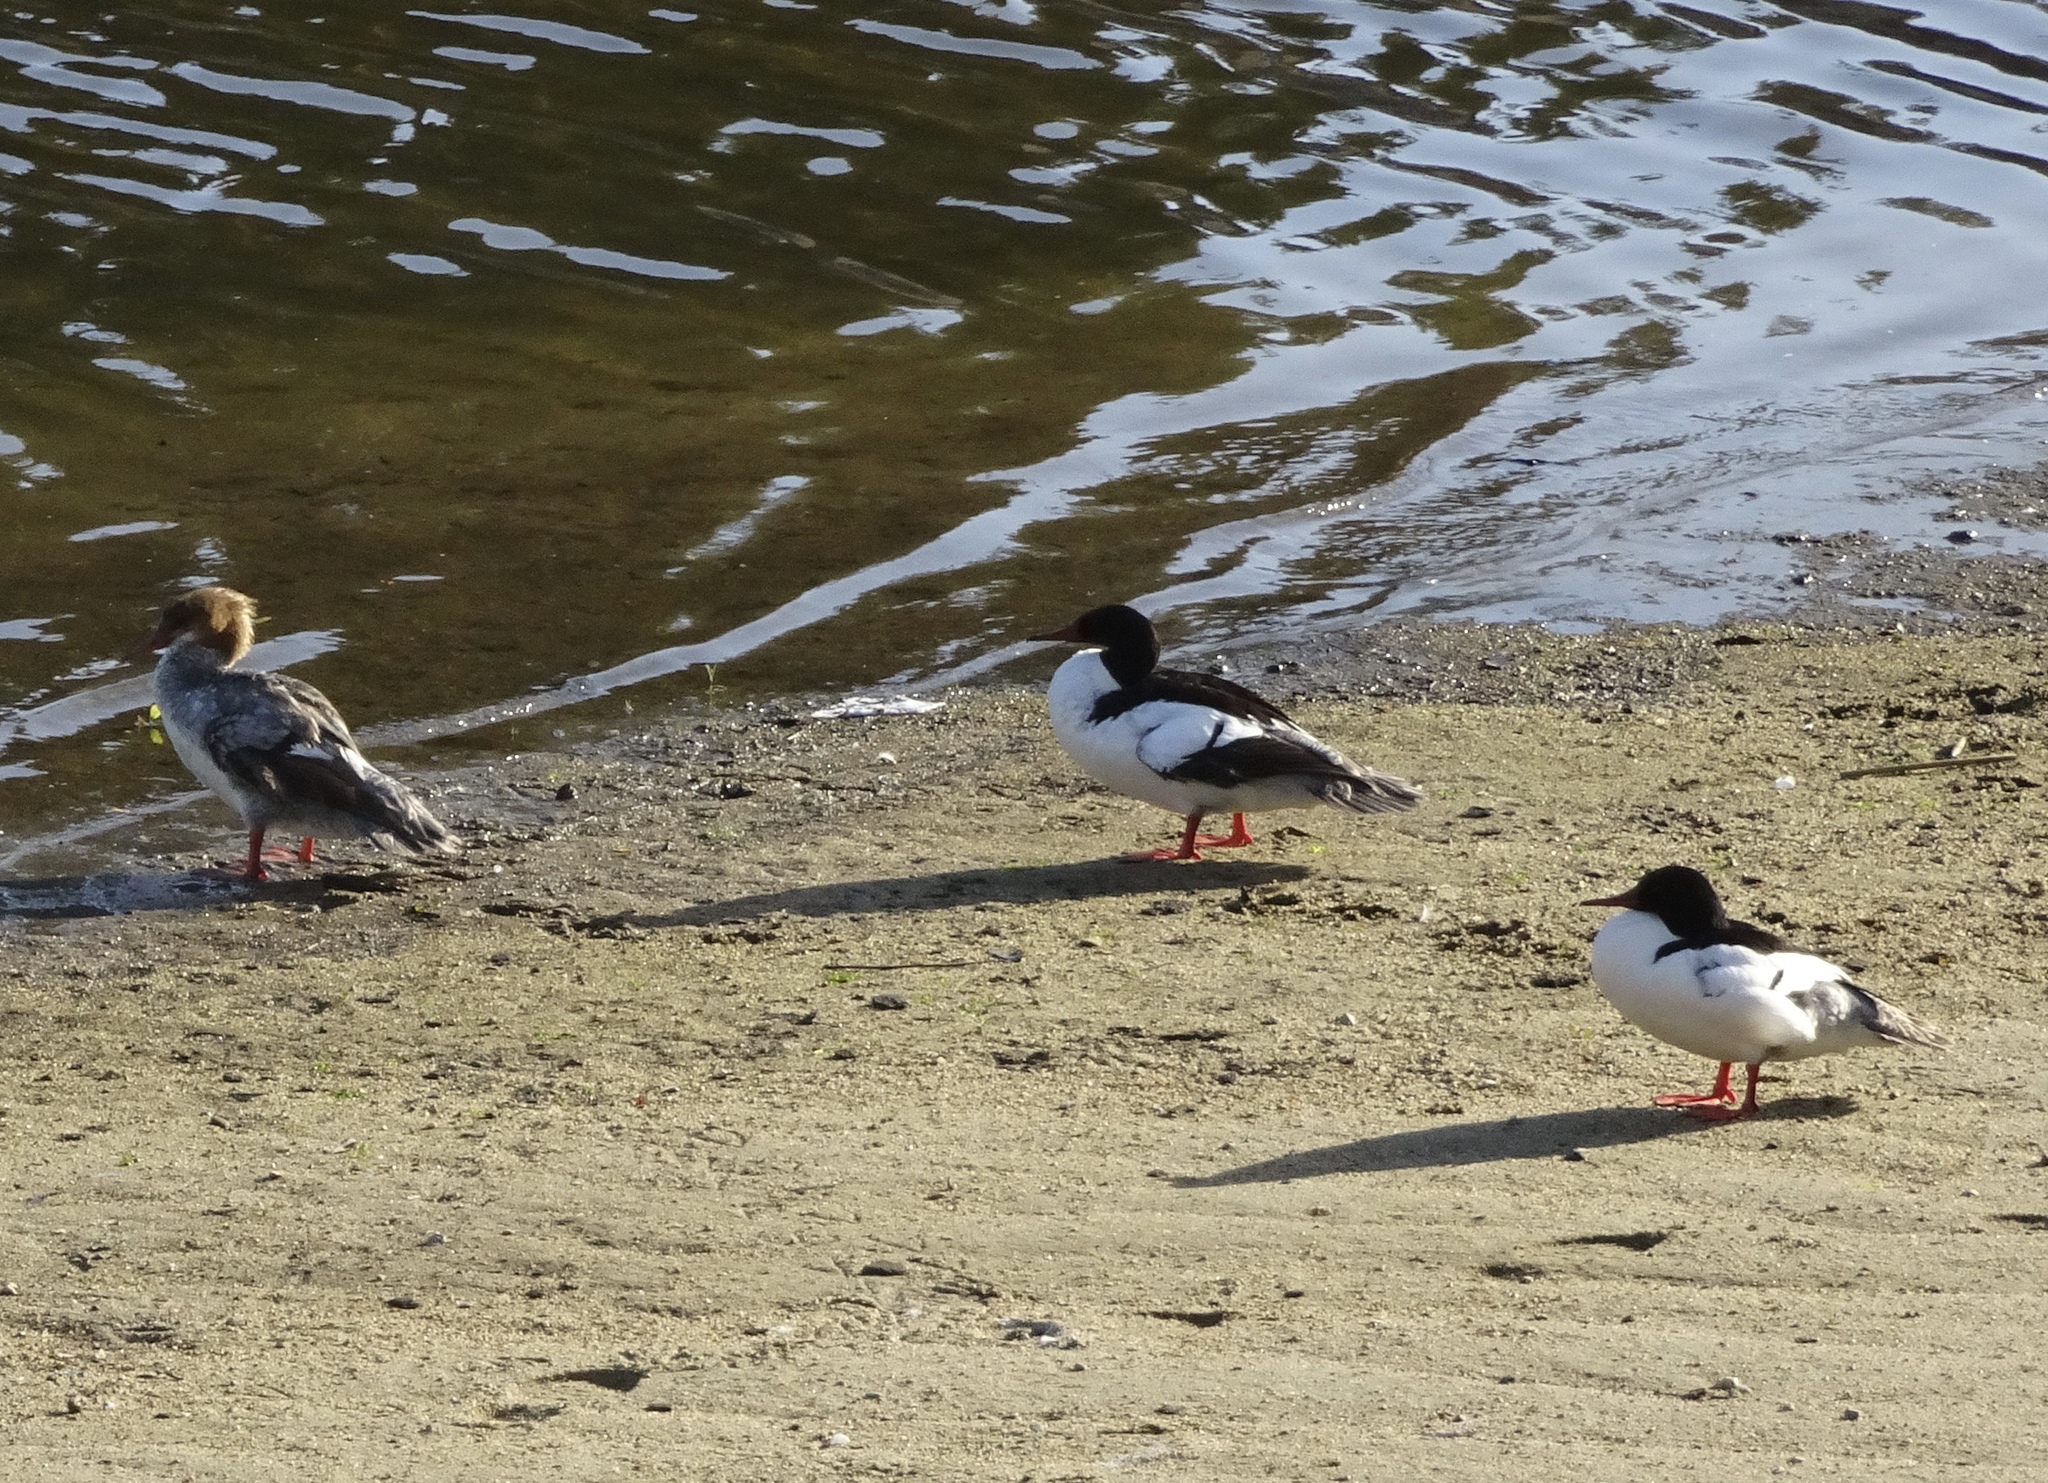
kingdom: Animalia
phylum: Chordata
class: Aves
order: Anseriformes
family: Anatidae
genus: Mergus
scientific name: Mergus merganser
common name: Common merganser
